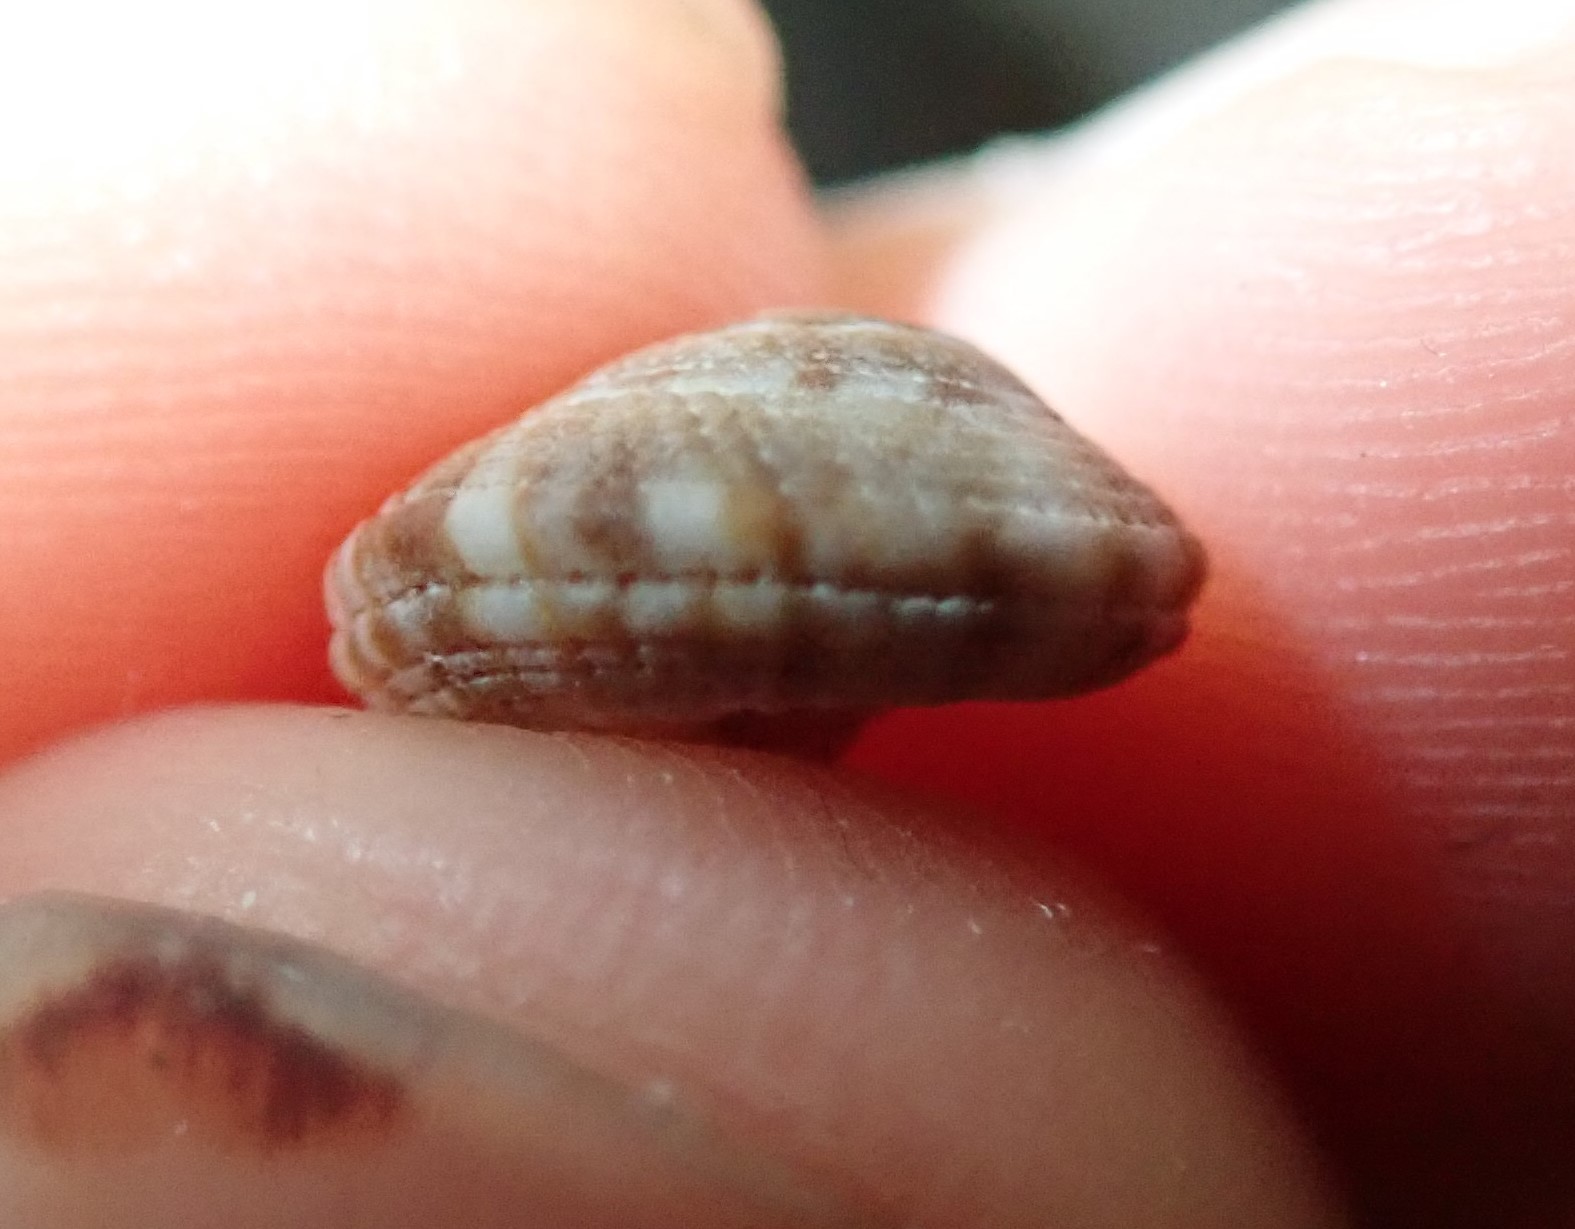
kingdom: Animalia
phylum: Mollusca
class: Gastropoda
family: Architectonicidae
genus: Heliacus
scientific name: Heliacus implexus
